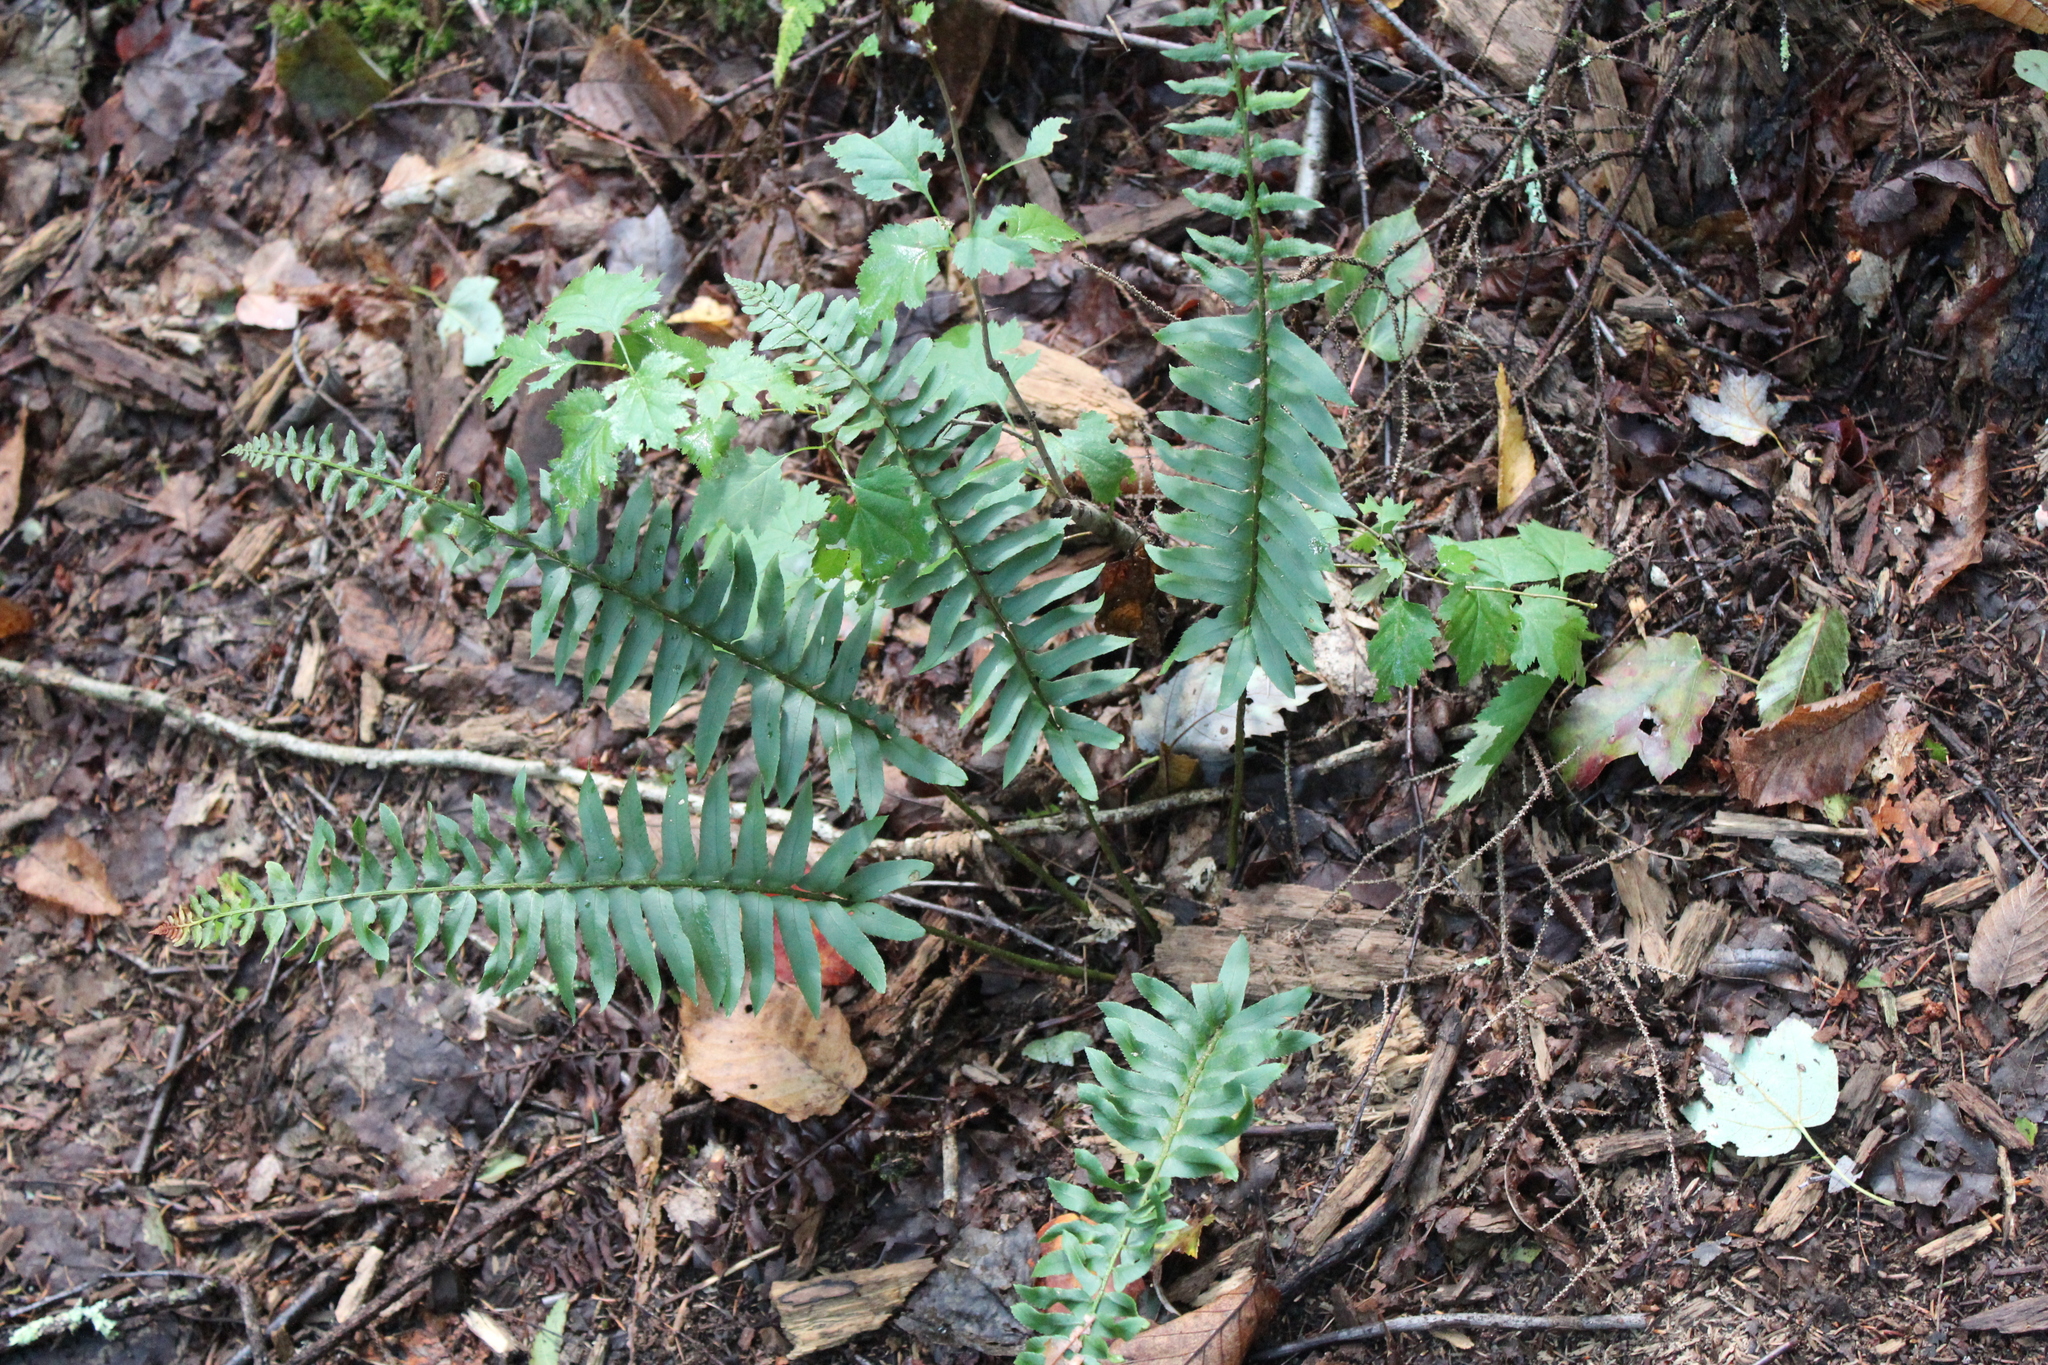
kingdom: Plantae
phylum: Tracheophyta
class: Polypodiopsida
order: Polypodiales
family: Dryopteridaceae
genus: Polystichum
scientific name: Polystichum acrostichoides
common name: Christmas fern
